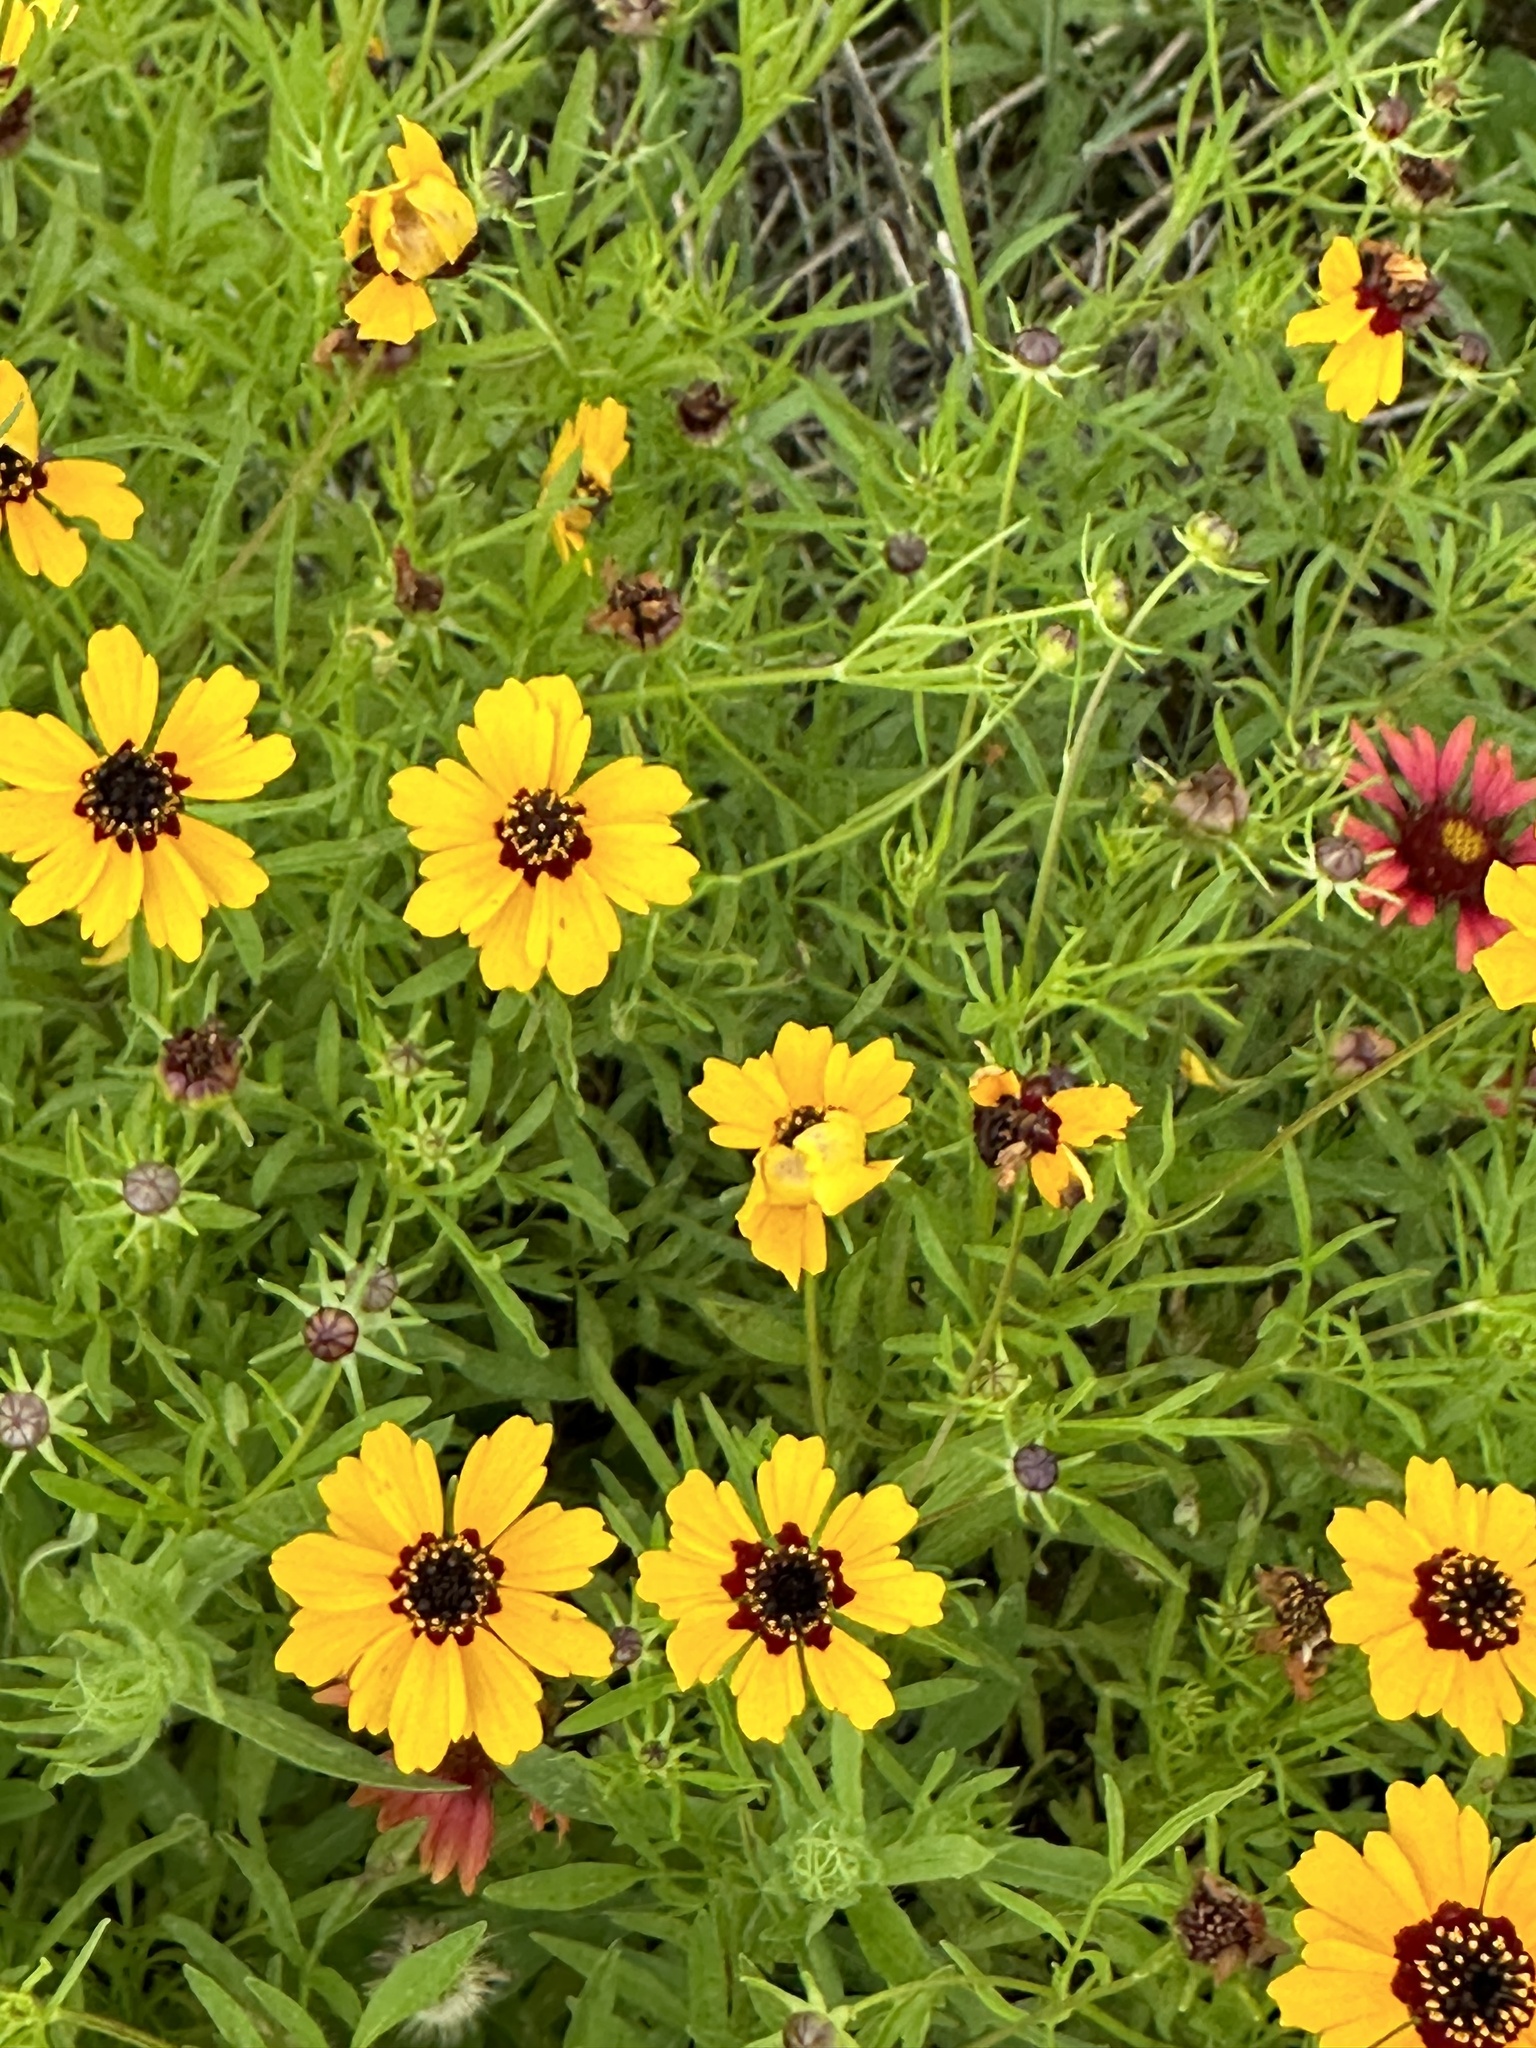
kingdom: Plantae
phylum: Tracheophyta
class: Magnoliopsida
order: Asterales
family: Asteraceae
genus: Coreopsis
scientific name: Coreopsis basalis
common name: Golden-mane coreopsis
